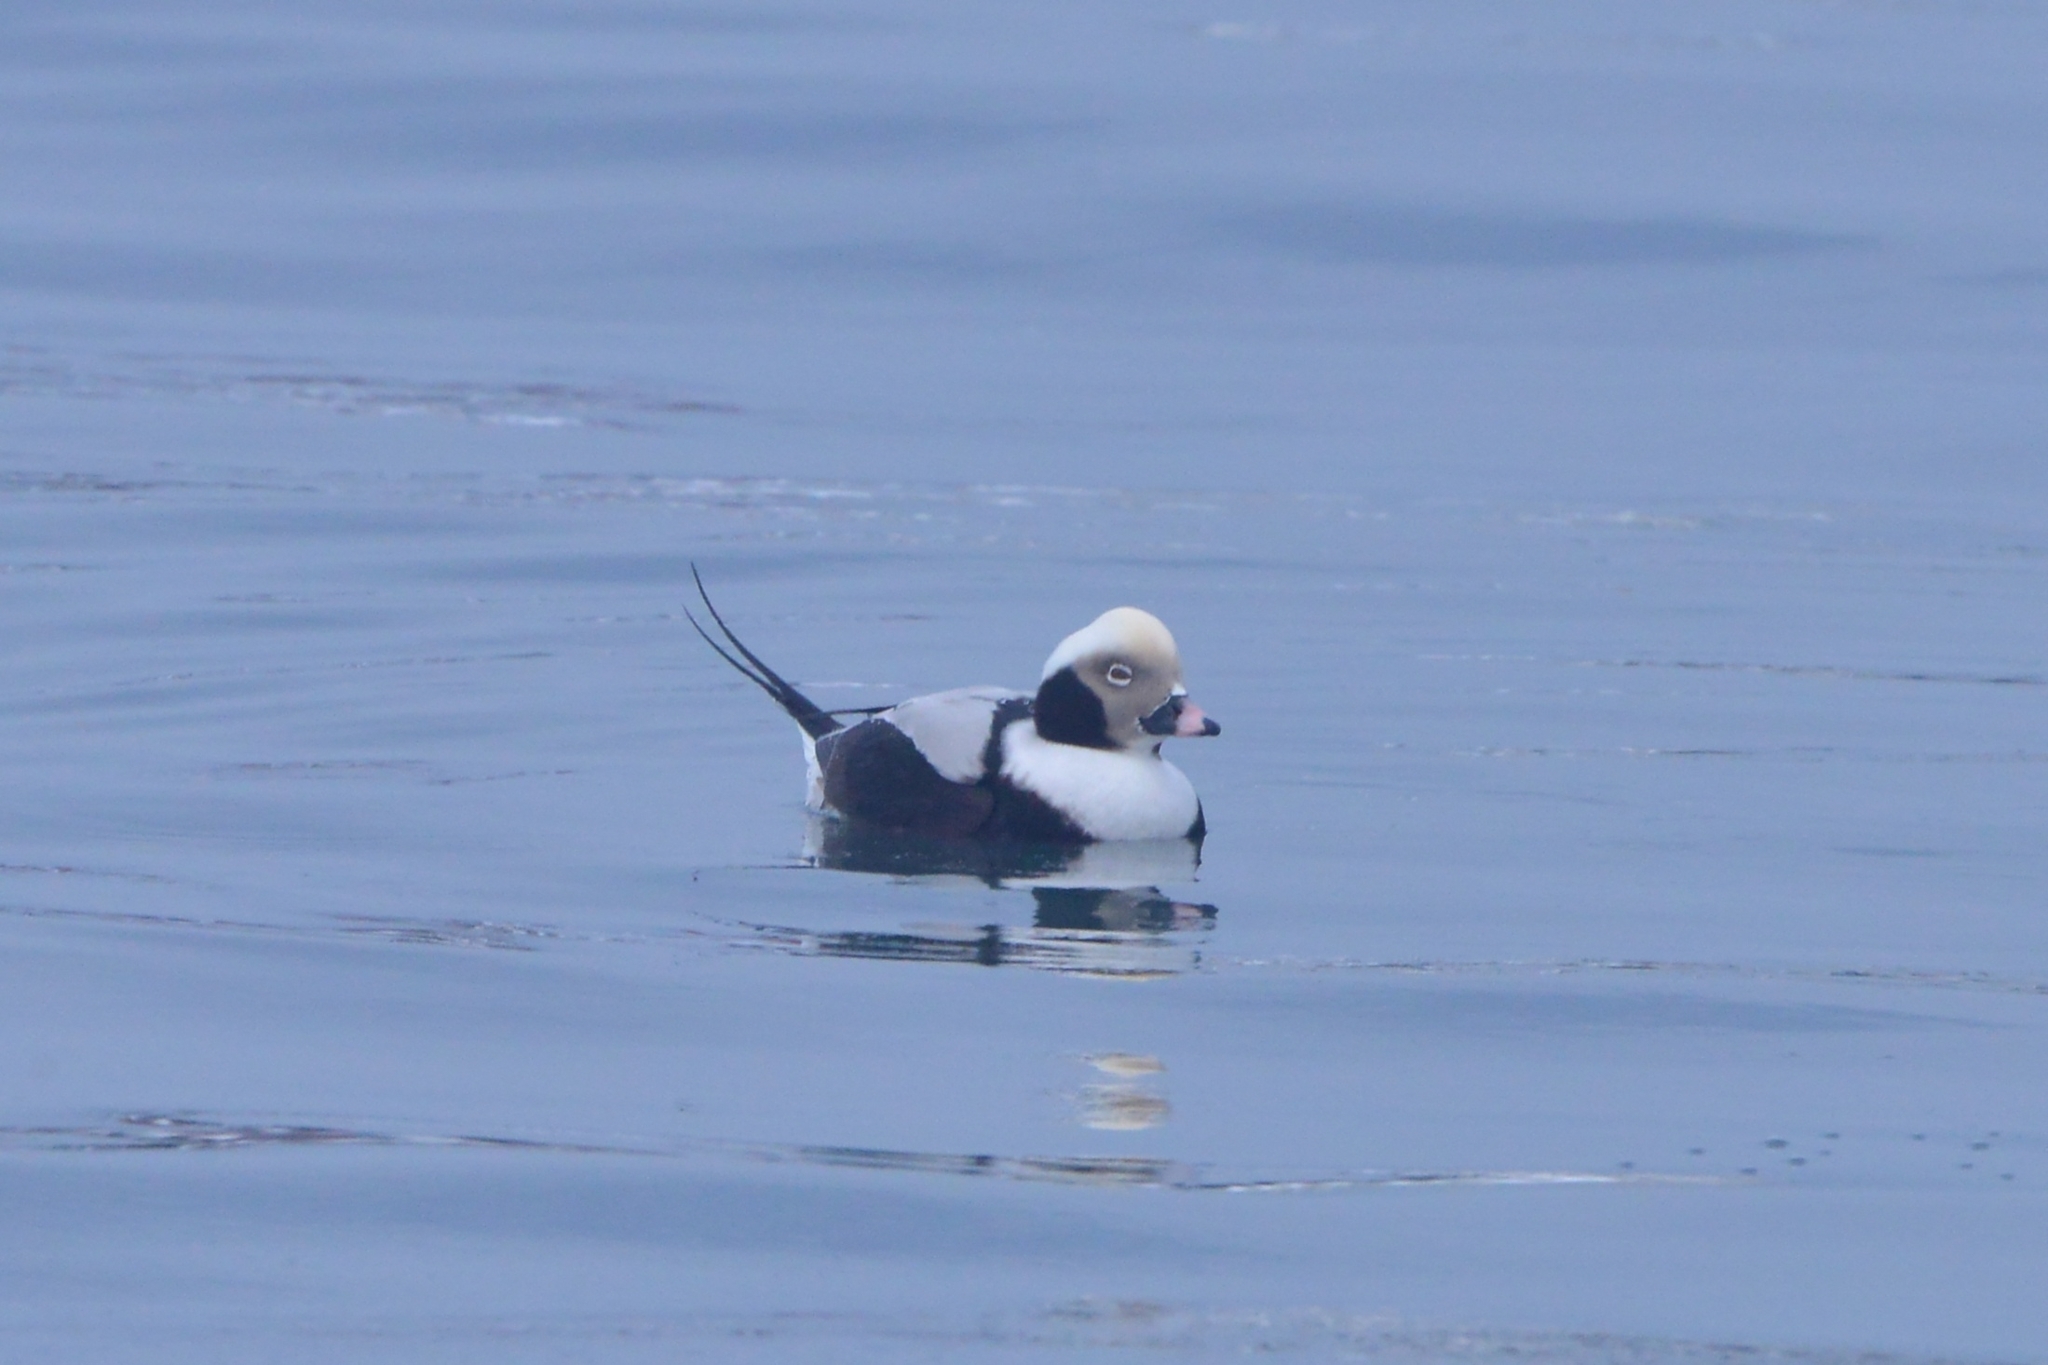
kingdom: Animalia
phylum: Chordata
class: Aves
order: Anseriformes
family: Anatidae
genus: Clangula
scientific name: Clangula hyemalis
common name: Long-tailed duck
